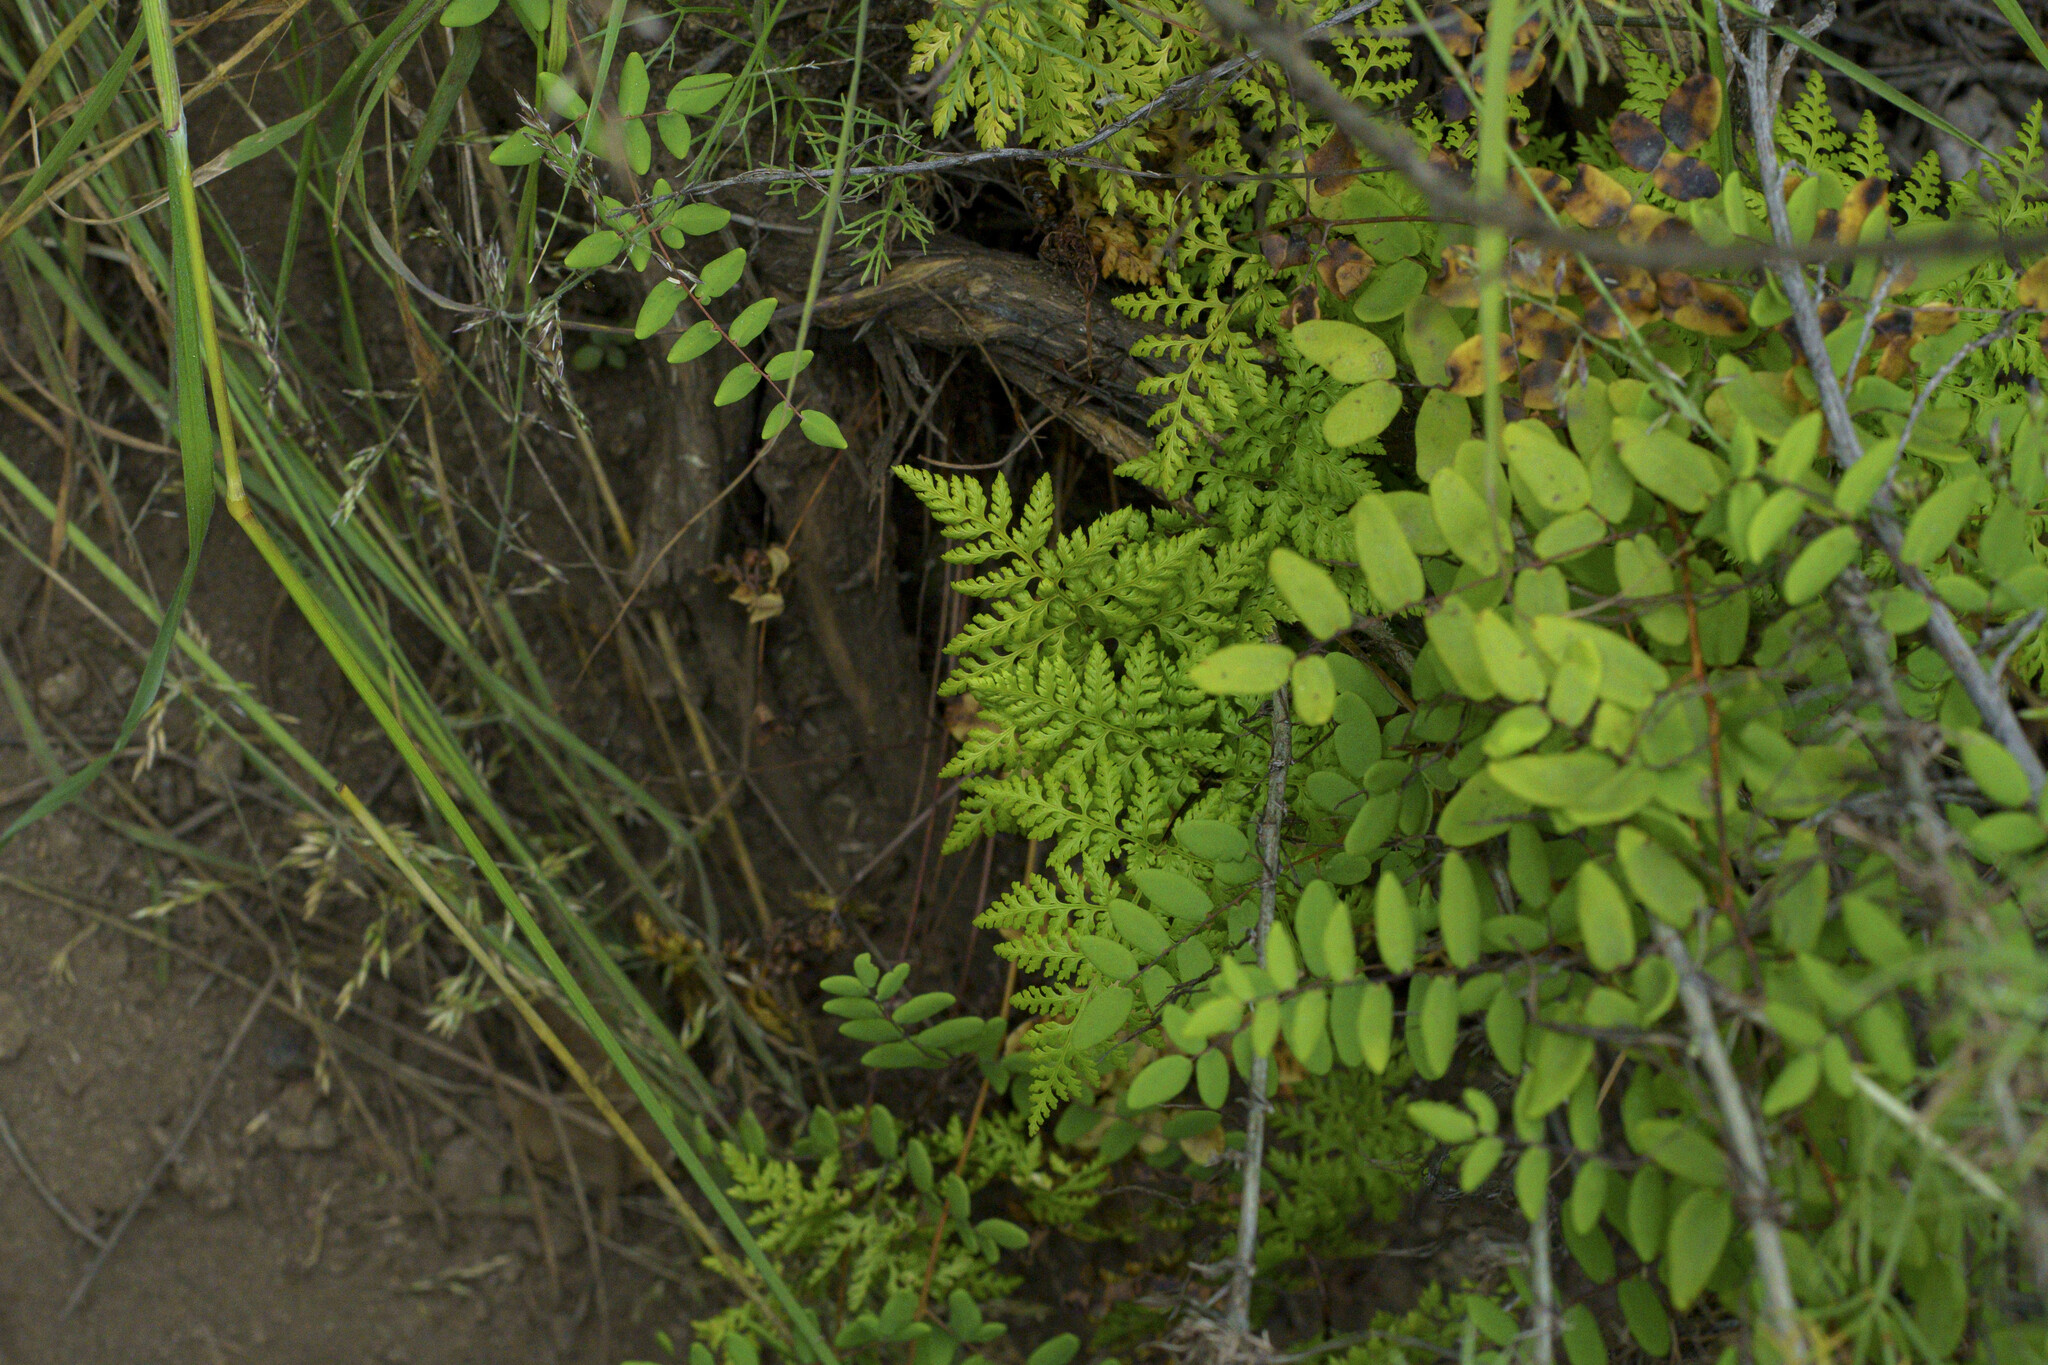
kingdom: Plantae
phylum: Tracheophyta
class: Polypodiopsida
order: Polypodiales
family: Pteridaceae
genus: Aspidotis
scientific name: Aspidotis californica
